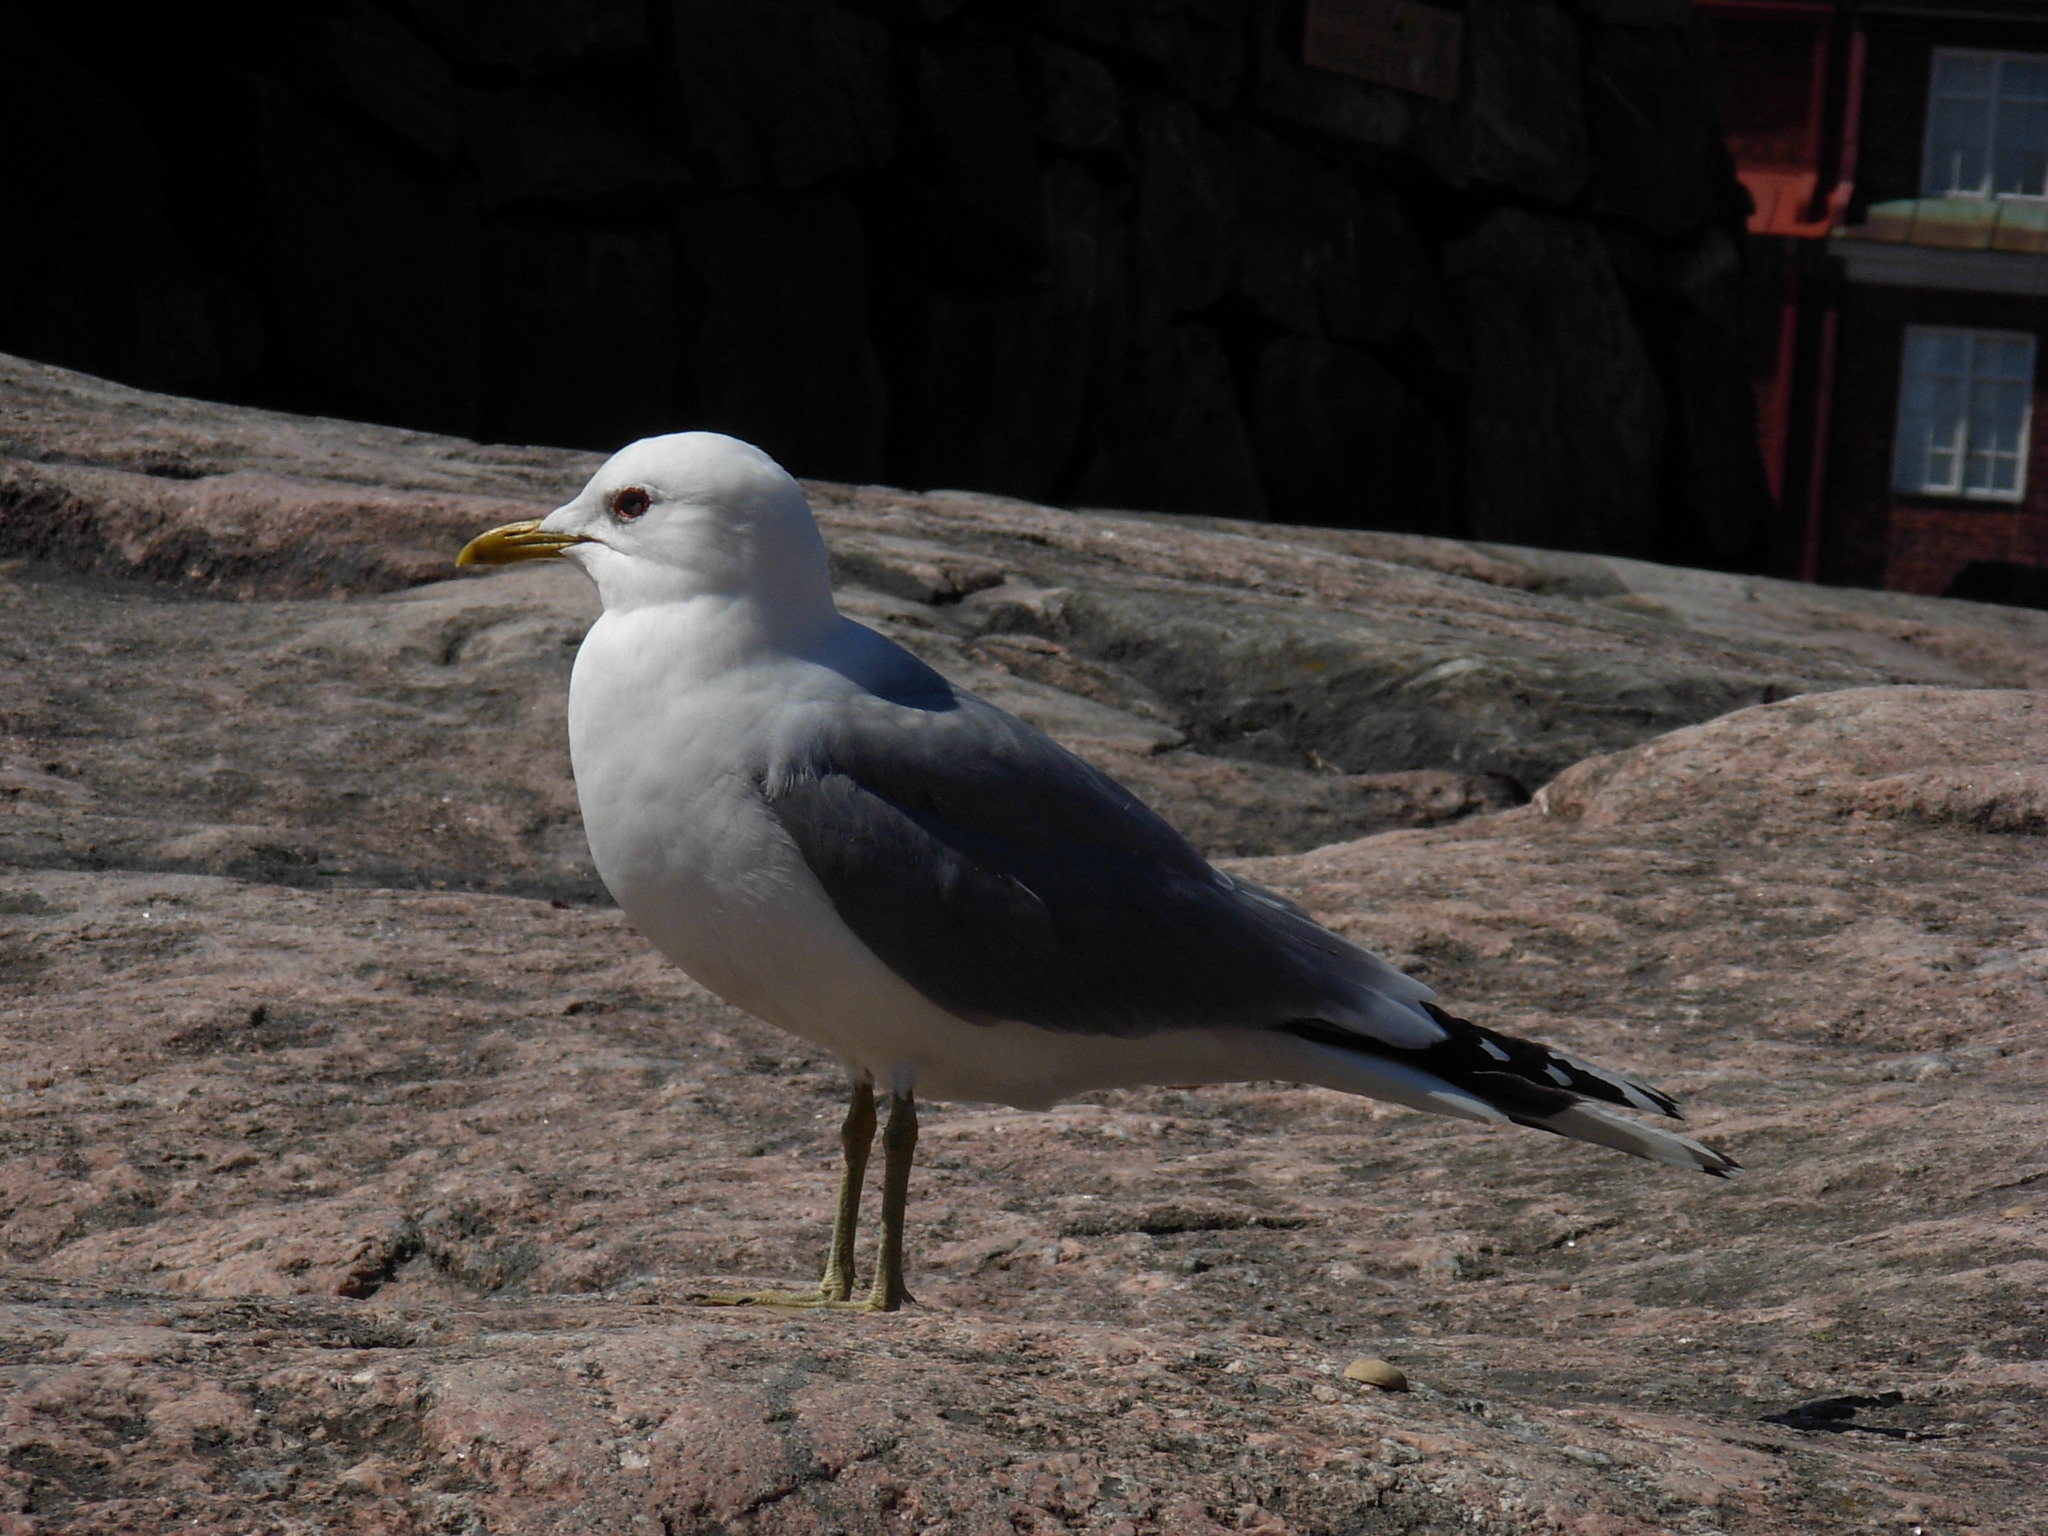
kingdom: Animalia
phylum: Chordata
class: Aves
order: Charadriiformes
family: Laridae
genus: Larus
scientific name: Larus canus
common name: Mew gull
